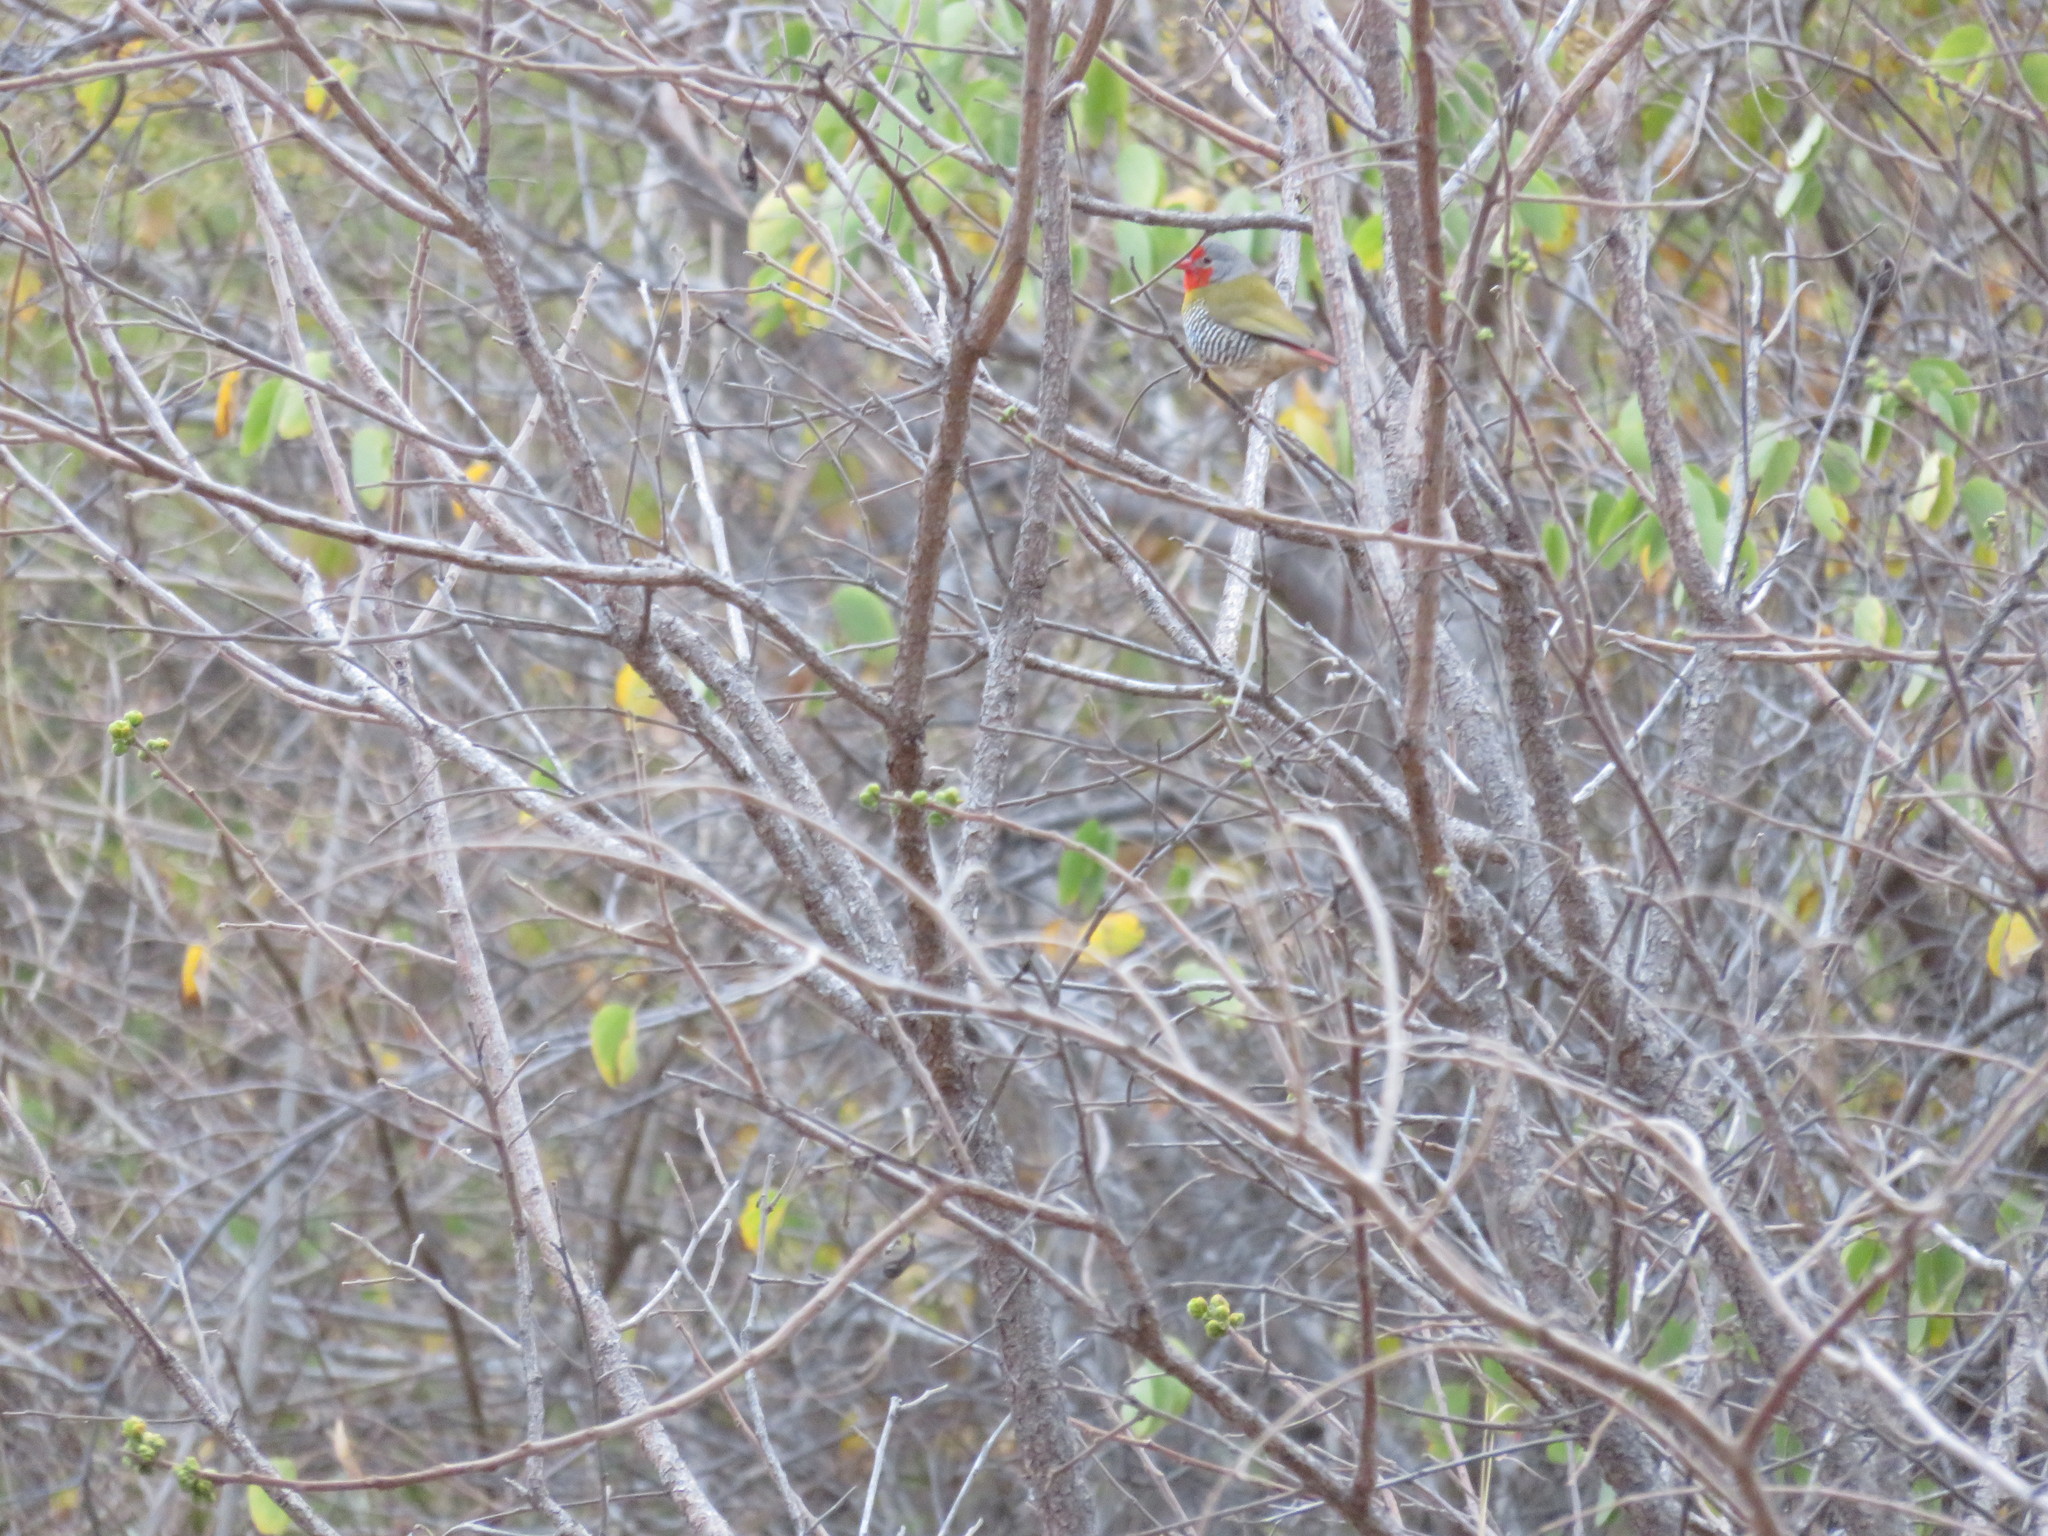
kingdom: Animalia
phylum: Chordata
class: Aves
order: Passeriformes
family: Estrildidae
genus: Pytilia
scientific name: Pytilia melba
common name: Green-winged pytilia
